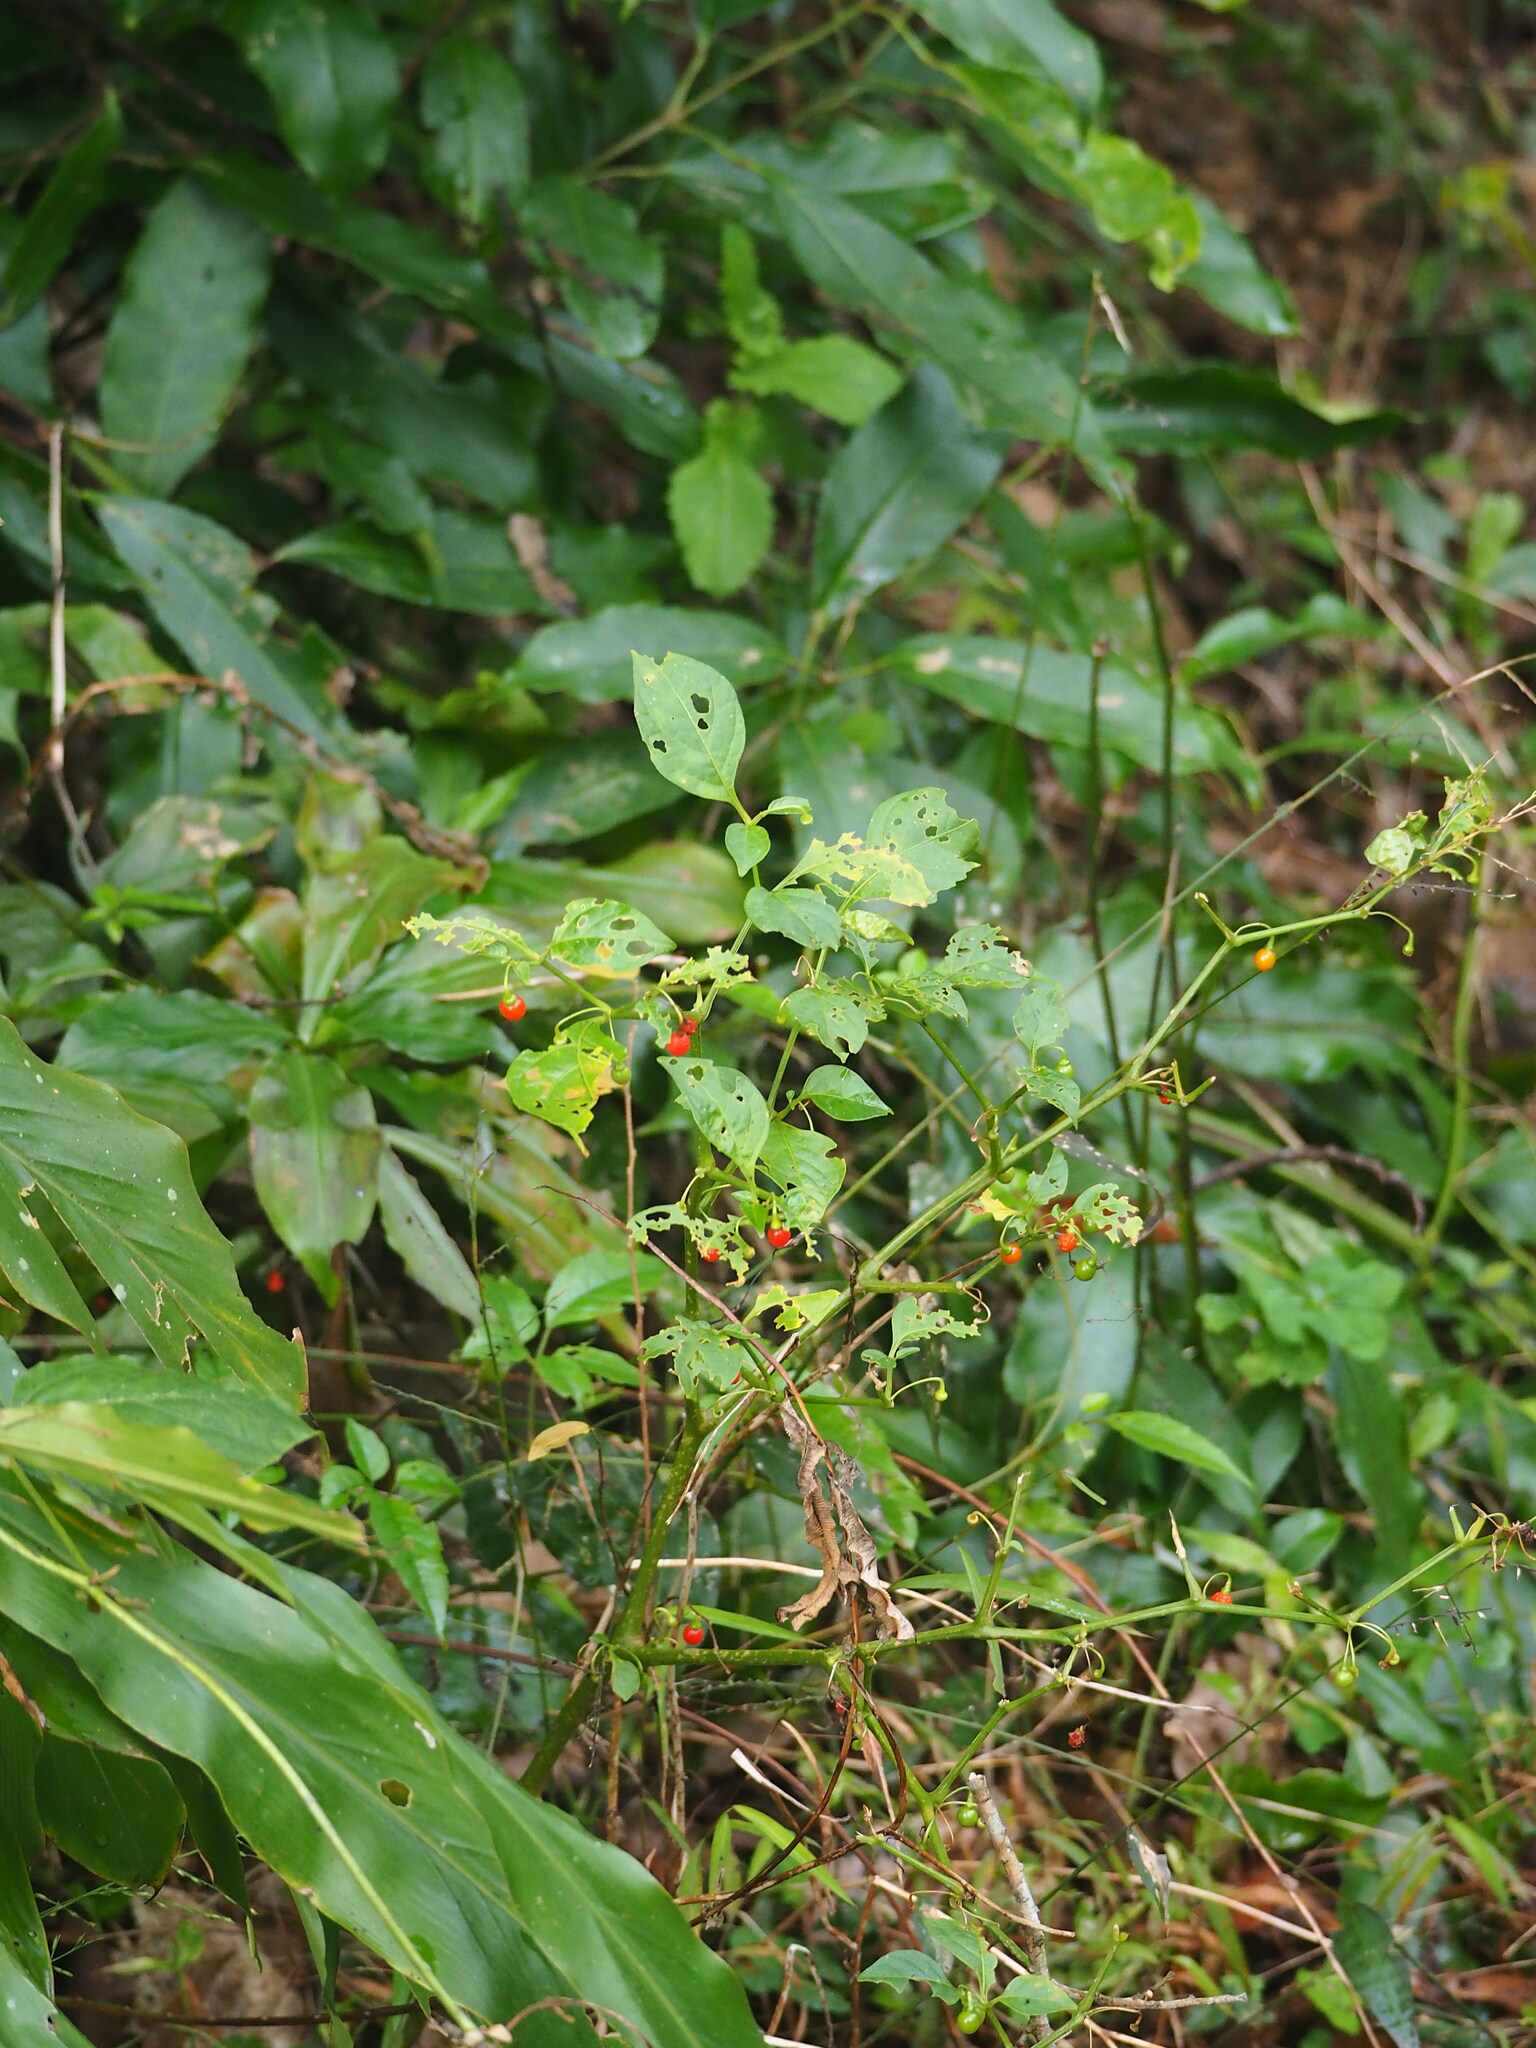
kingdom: Plantae
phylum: Tracheophyta
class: Magnoliopsida
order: Solanales
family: Solanaceae
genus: Tubocapsicum
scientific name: Tubocapsicum anomalum
